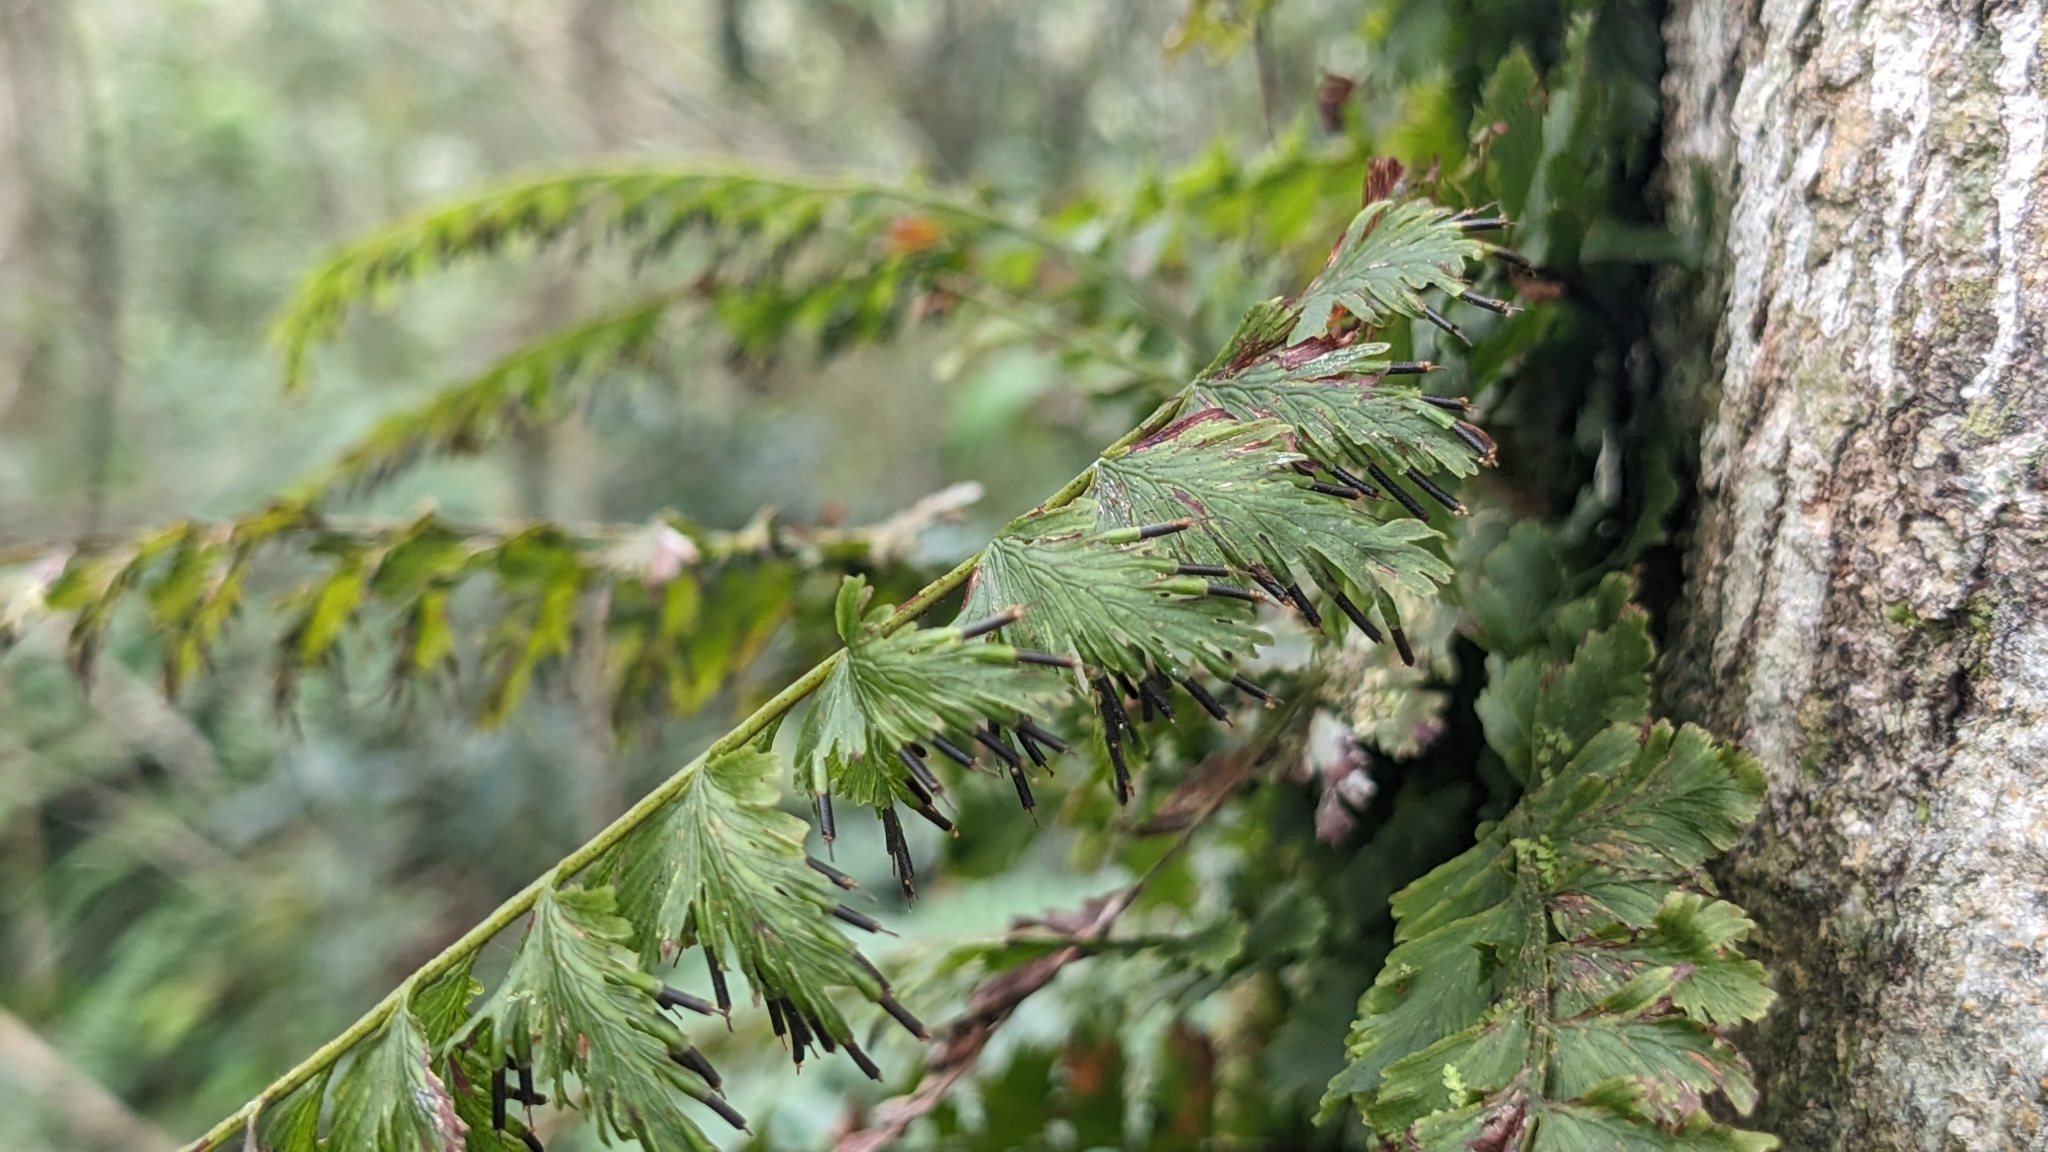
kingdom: Plantae
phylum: Tracheophyta
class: Polypodiopsida
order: Hymenophyllales
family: Hymenophyllaceae
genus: Vandenboschia
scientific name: Vandenboschia auriculata
